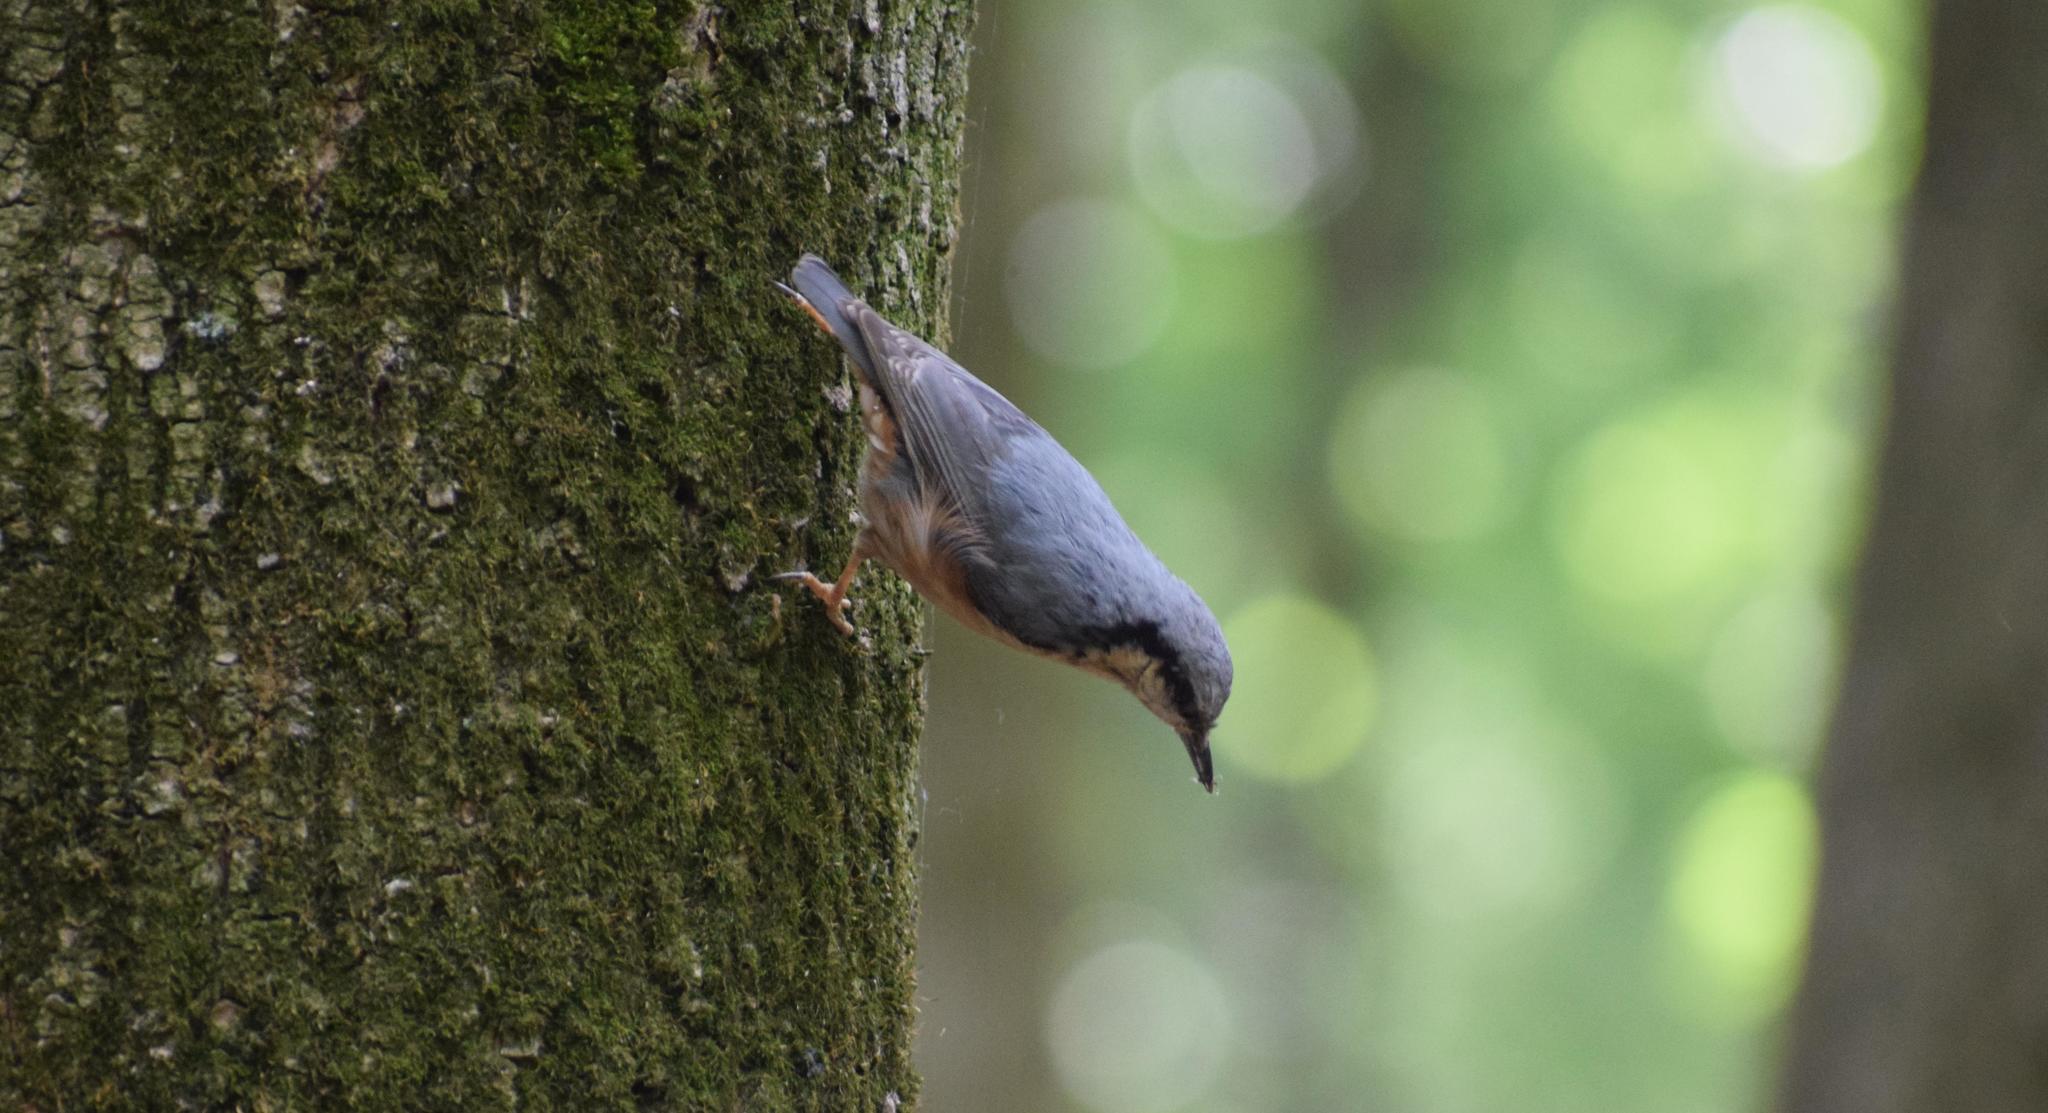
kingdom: Animalia
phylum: Chordata
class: Aves
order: Passeriformes
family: Sittidae
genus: Sitta
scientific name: Sitta europaea
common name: Eurasian nuthatch
